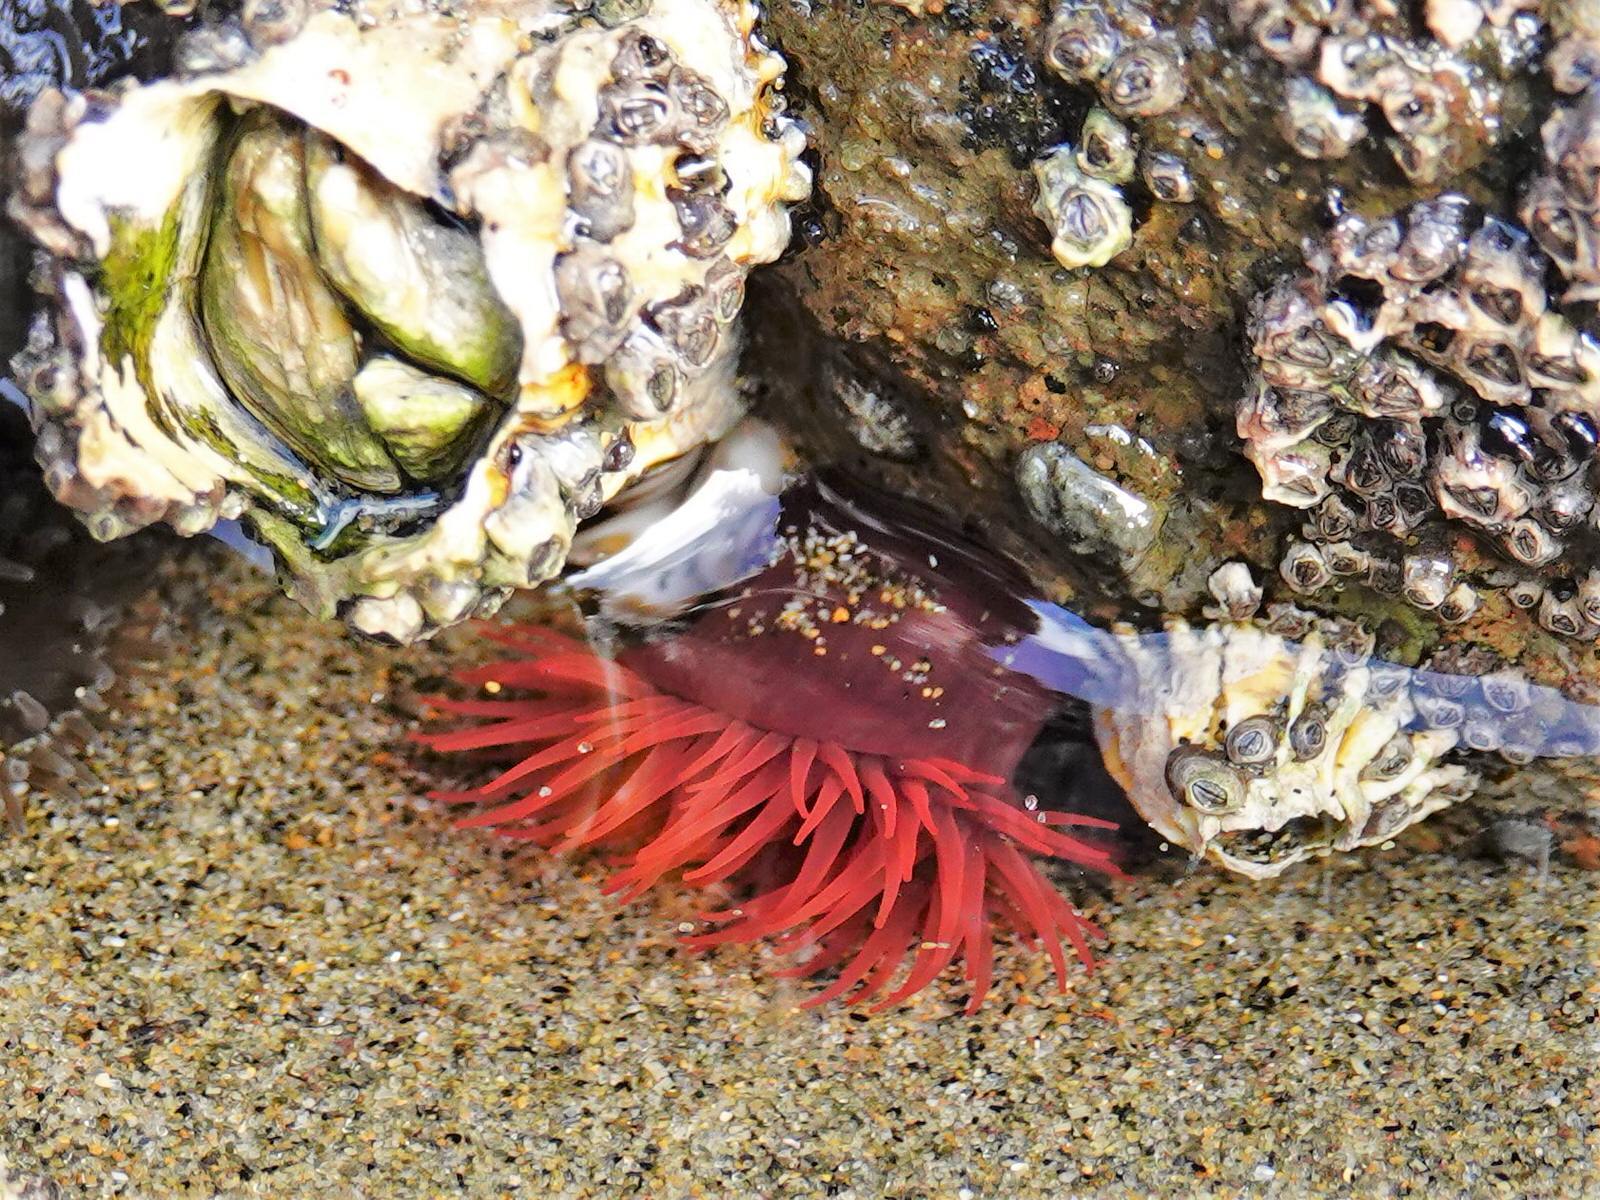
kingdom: Animalia
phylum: Cnidaria
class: Anthozoa
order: Actiniaria
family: Actiniidae
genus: Actinia
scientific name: Actinia tenebrosa
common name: Waratah anemone
